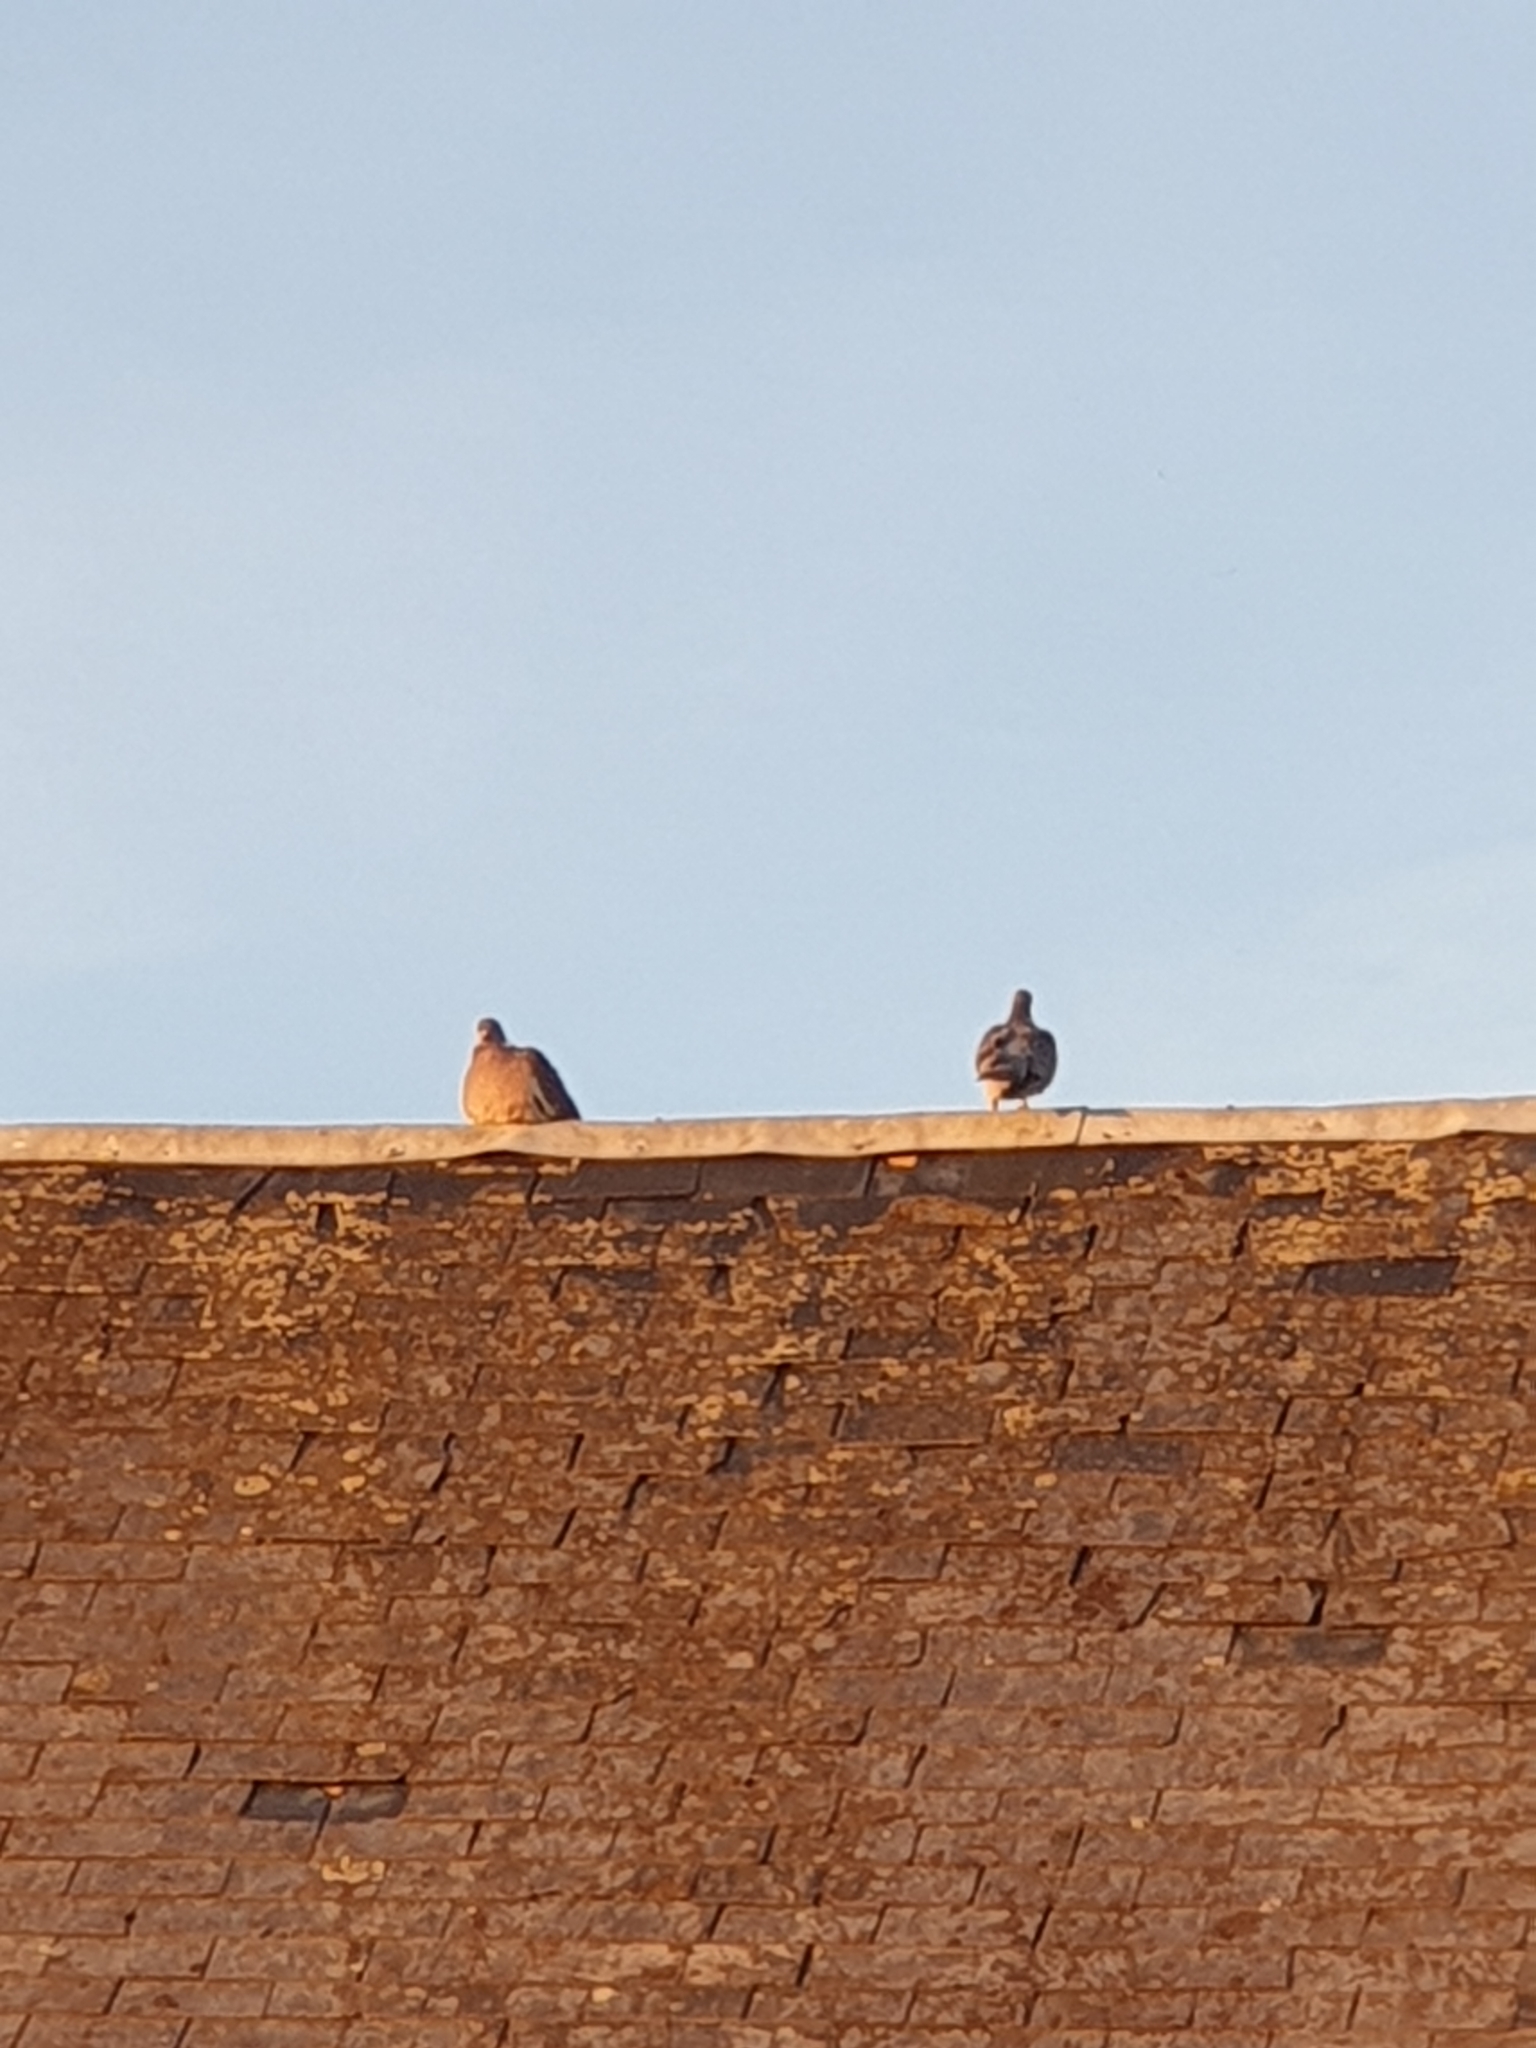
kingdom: Animalia
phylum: Chordata
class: Aves
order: Columbiformes
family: Columbidae
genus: Columba
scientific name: Columba palumbus
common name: Common wood pigeon
